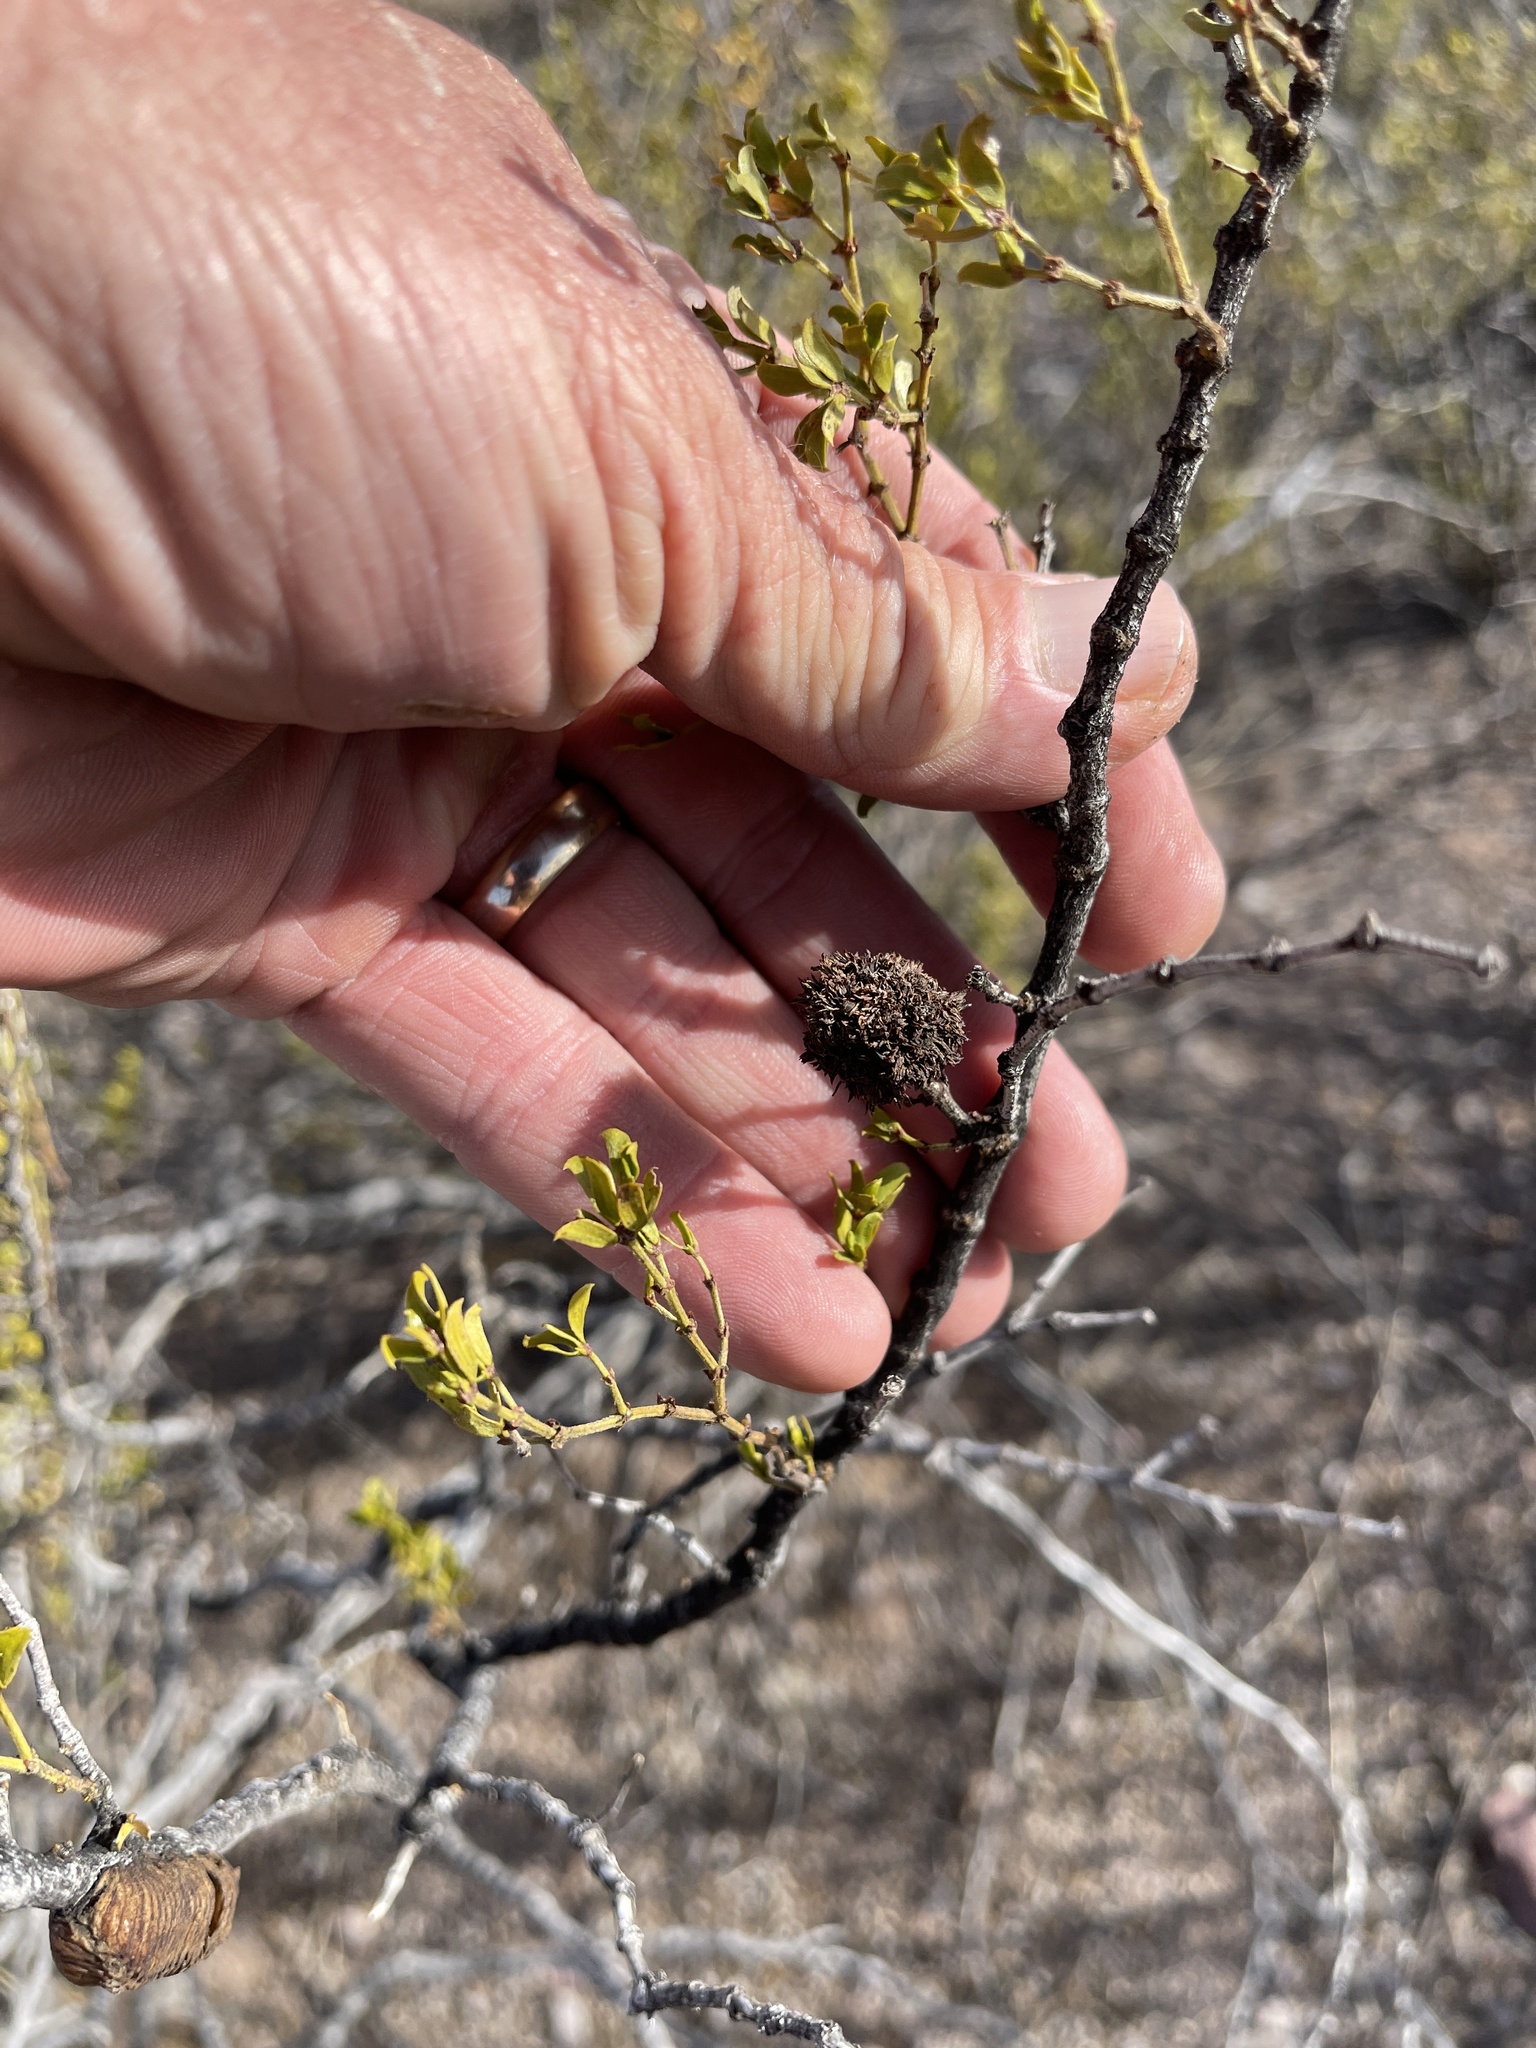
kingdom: Animalia
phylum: Arthropoda
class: Insecta
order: Diptera
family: Cecidomyiidae
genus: Asphondylia
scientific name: Asphondylia auripila
